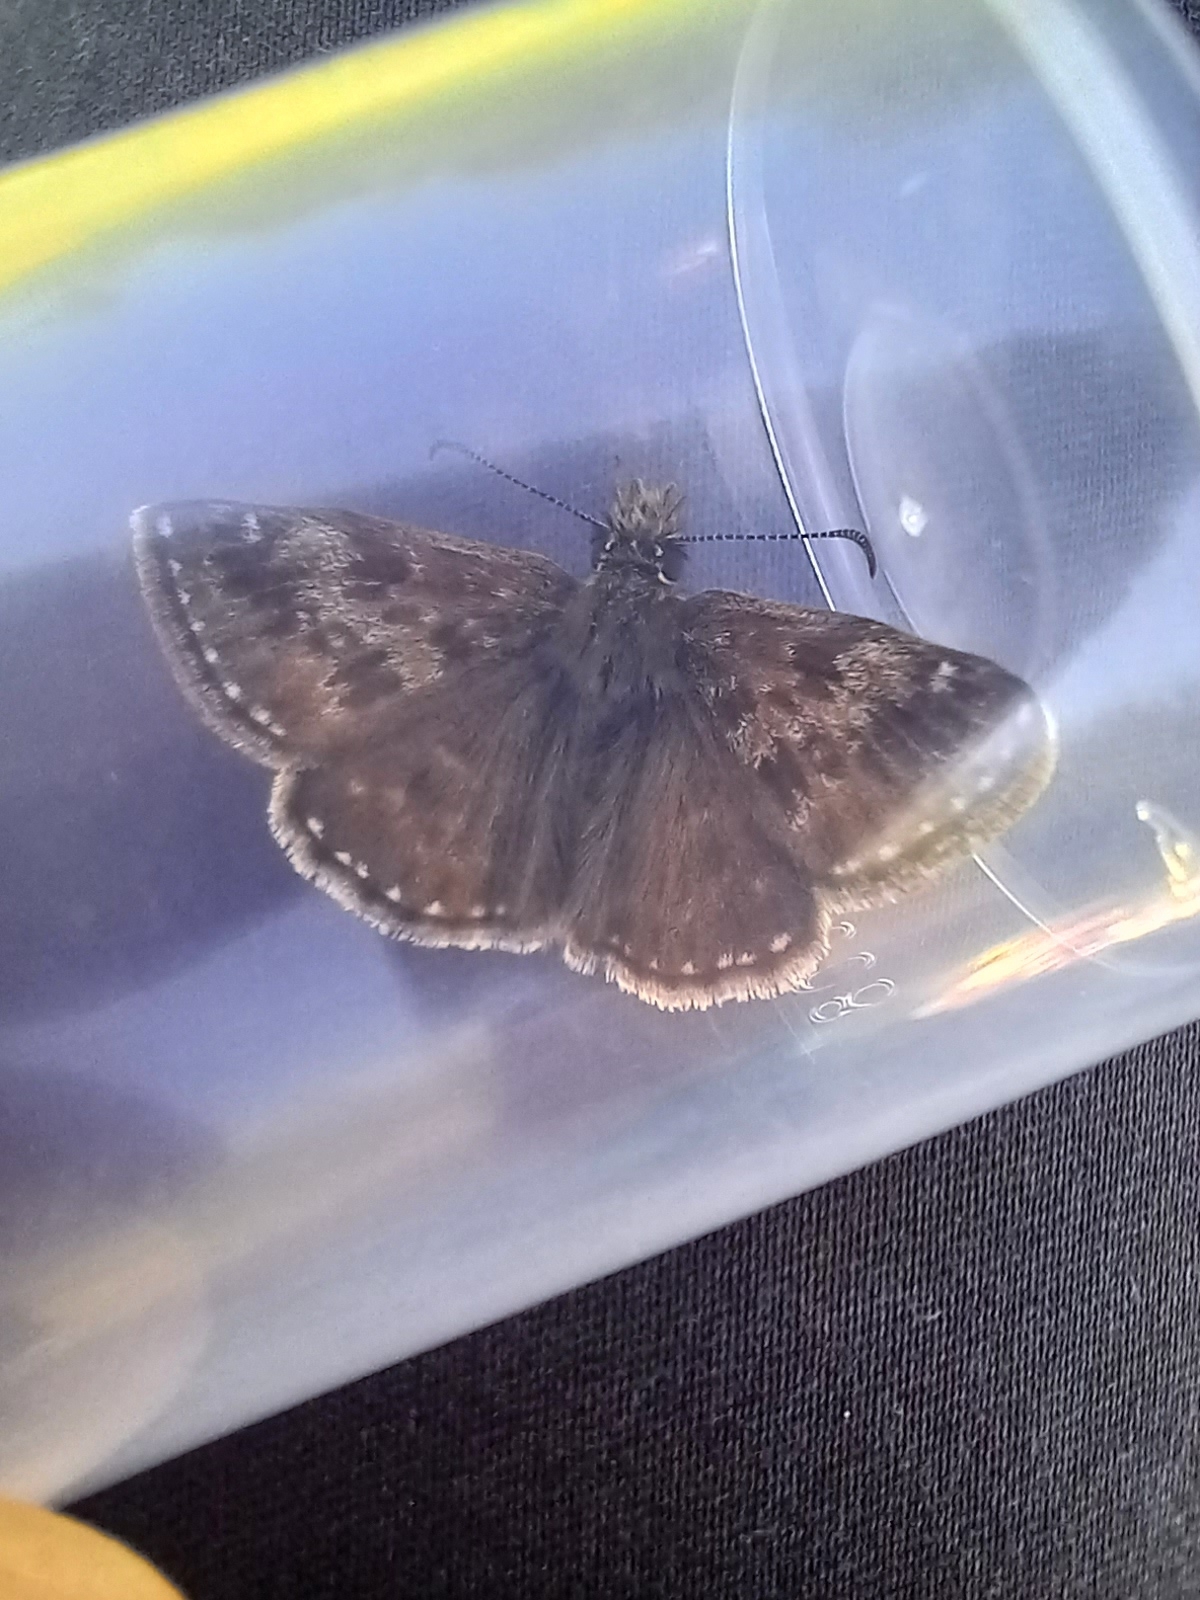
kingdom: Animalia
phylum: Arthropoda
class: Insecta
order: Lepidoptera
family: Hesperiidae
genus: Erynnis
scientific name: Erynnis tages
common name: Dingy skipper
